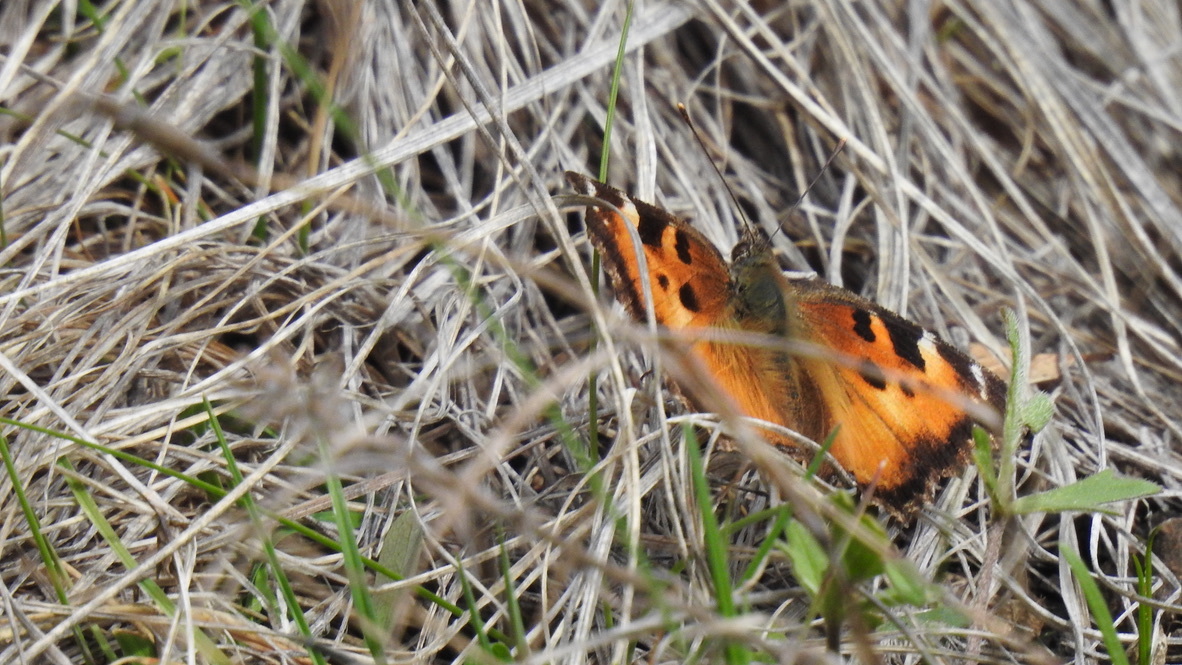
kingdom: Animalia
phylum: Arthropoda
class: Insecta
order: Lepidoptera
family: Nymphalidae
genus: Nymphalis
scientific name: Nymphalis californica
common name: California tortoiseshell
